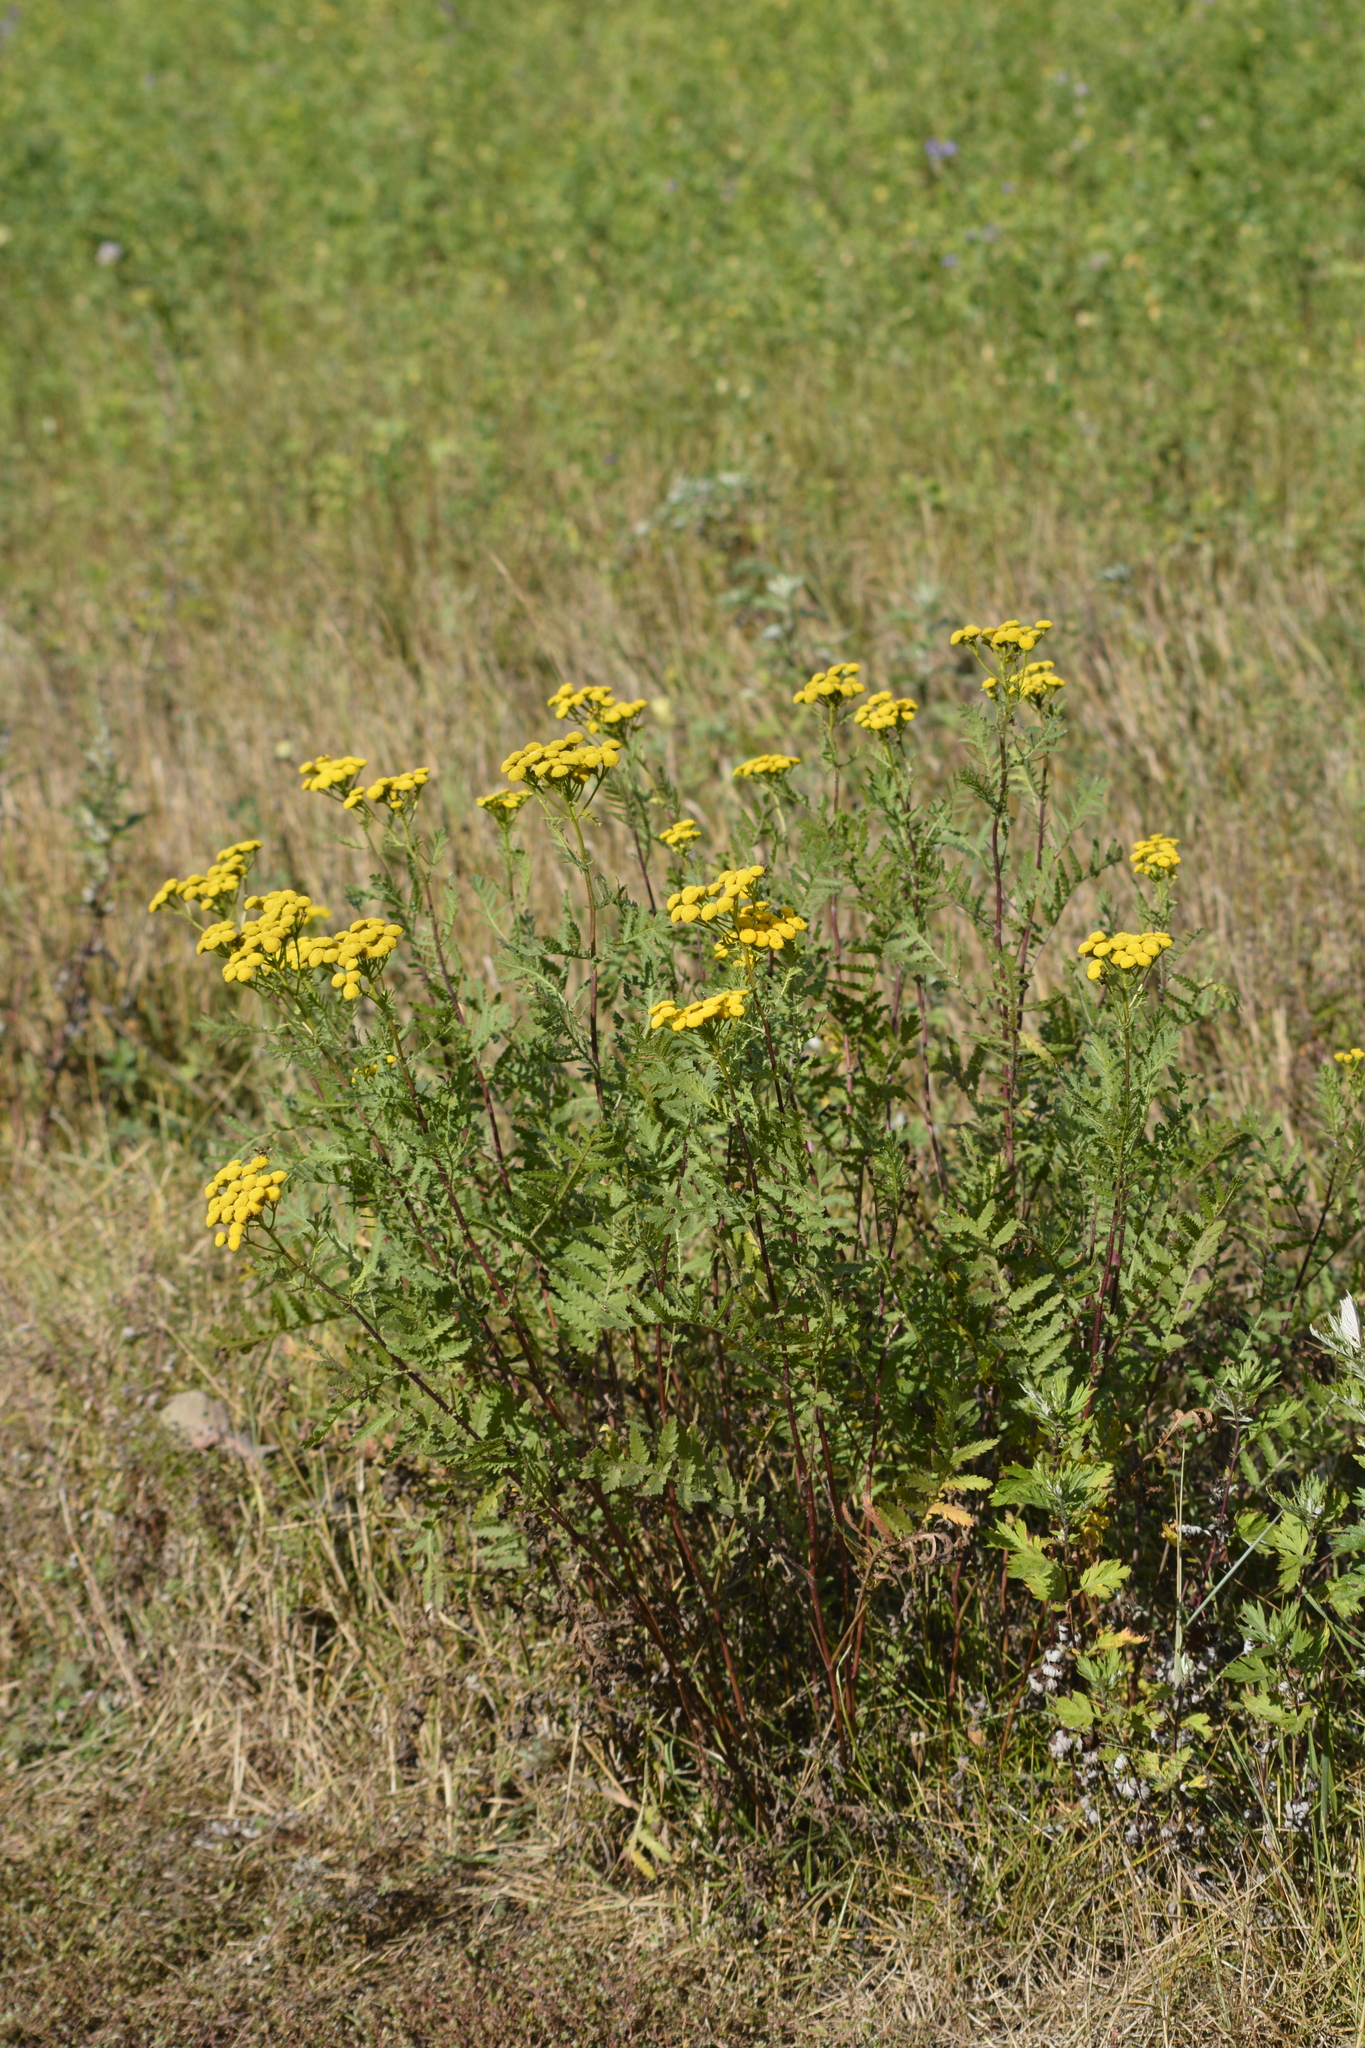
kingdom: Plantae
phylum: Tracheophyta
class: Magnoliopsida
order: Asterales
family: Asteraceae
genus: Tanacetum
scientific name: Tanacetum vulgare
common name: Common tansy
